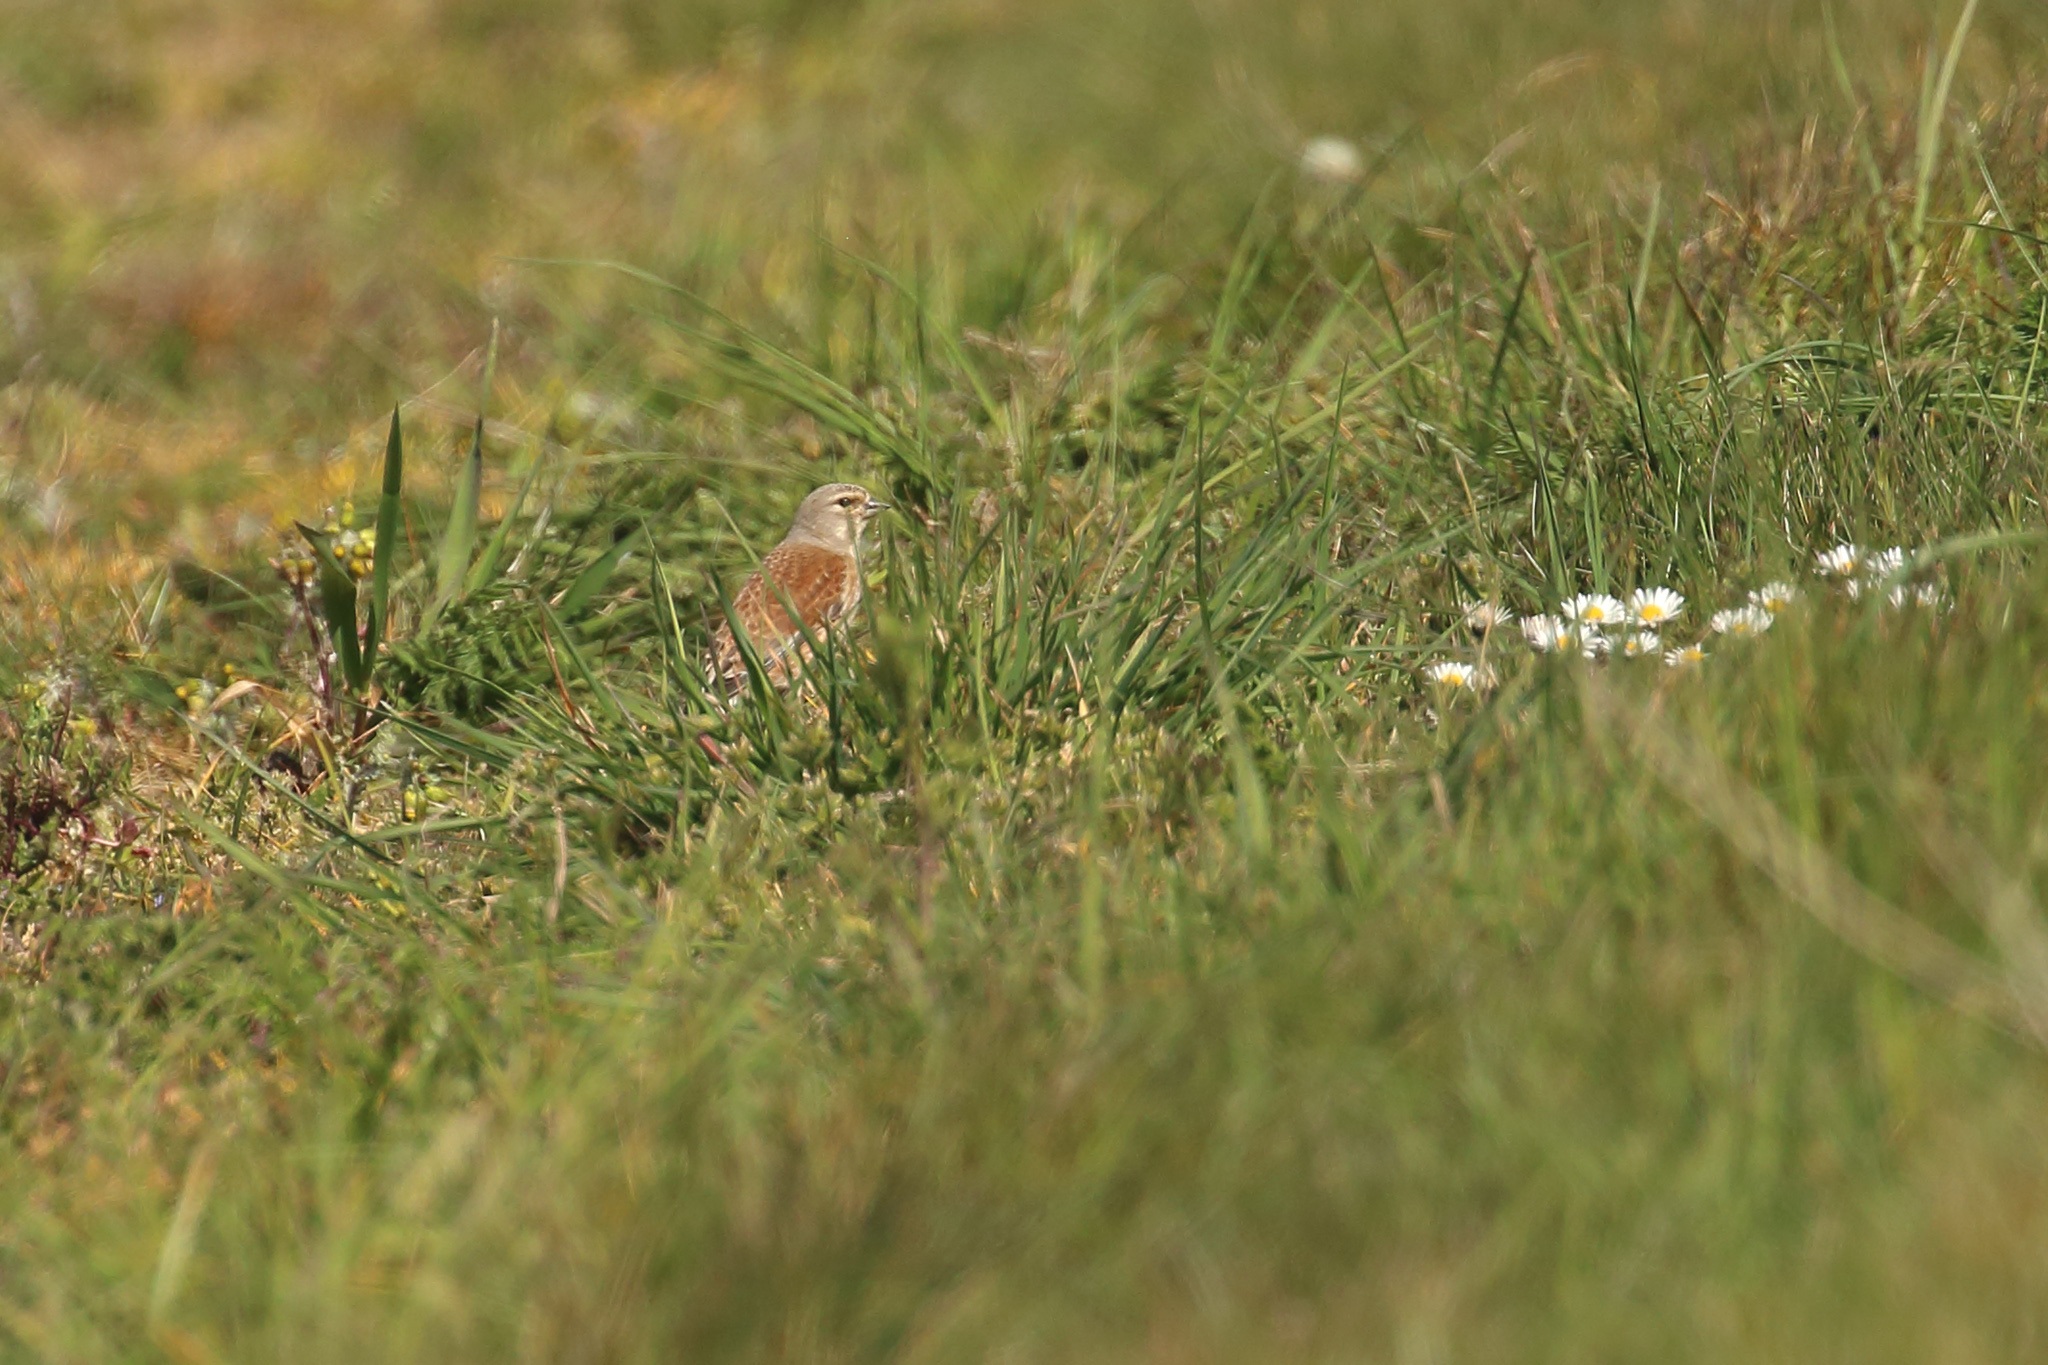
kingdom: Animalia
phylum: Chordata
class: Aves
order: Passeriformes
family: Fringillidae
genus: Linaria
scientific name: Linaria cannabina
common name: Common linnet
